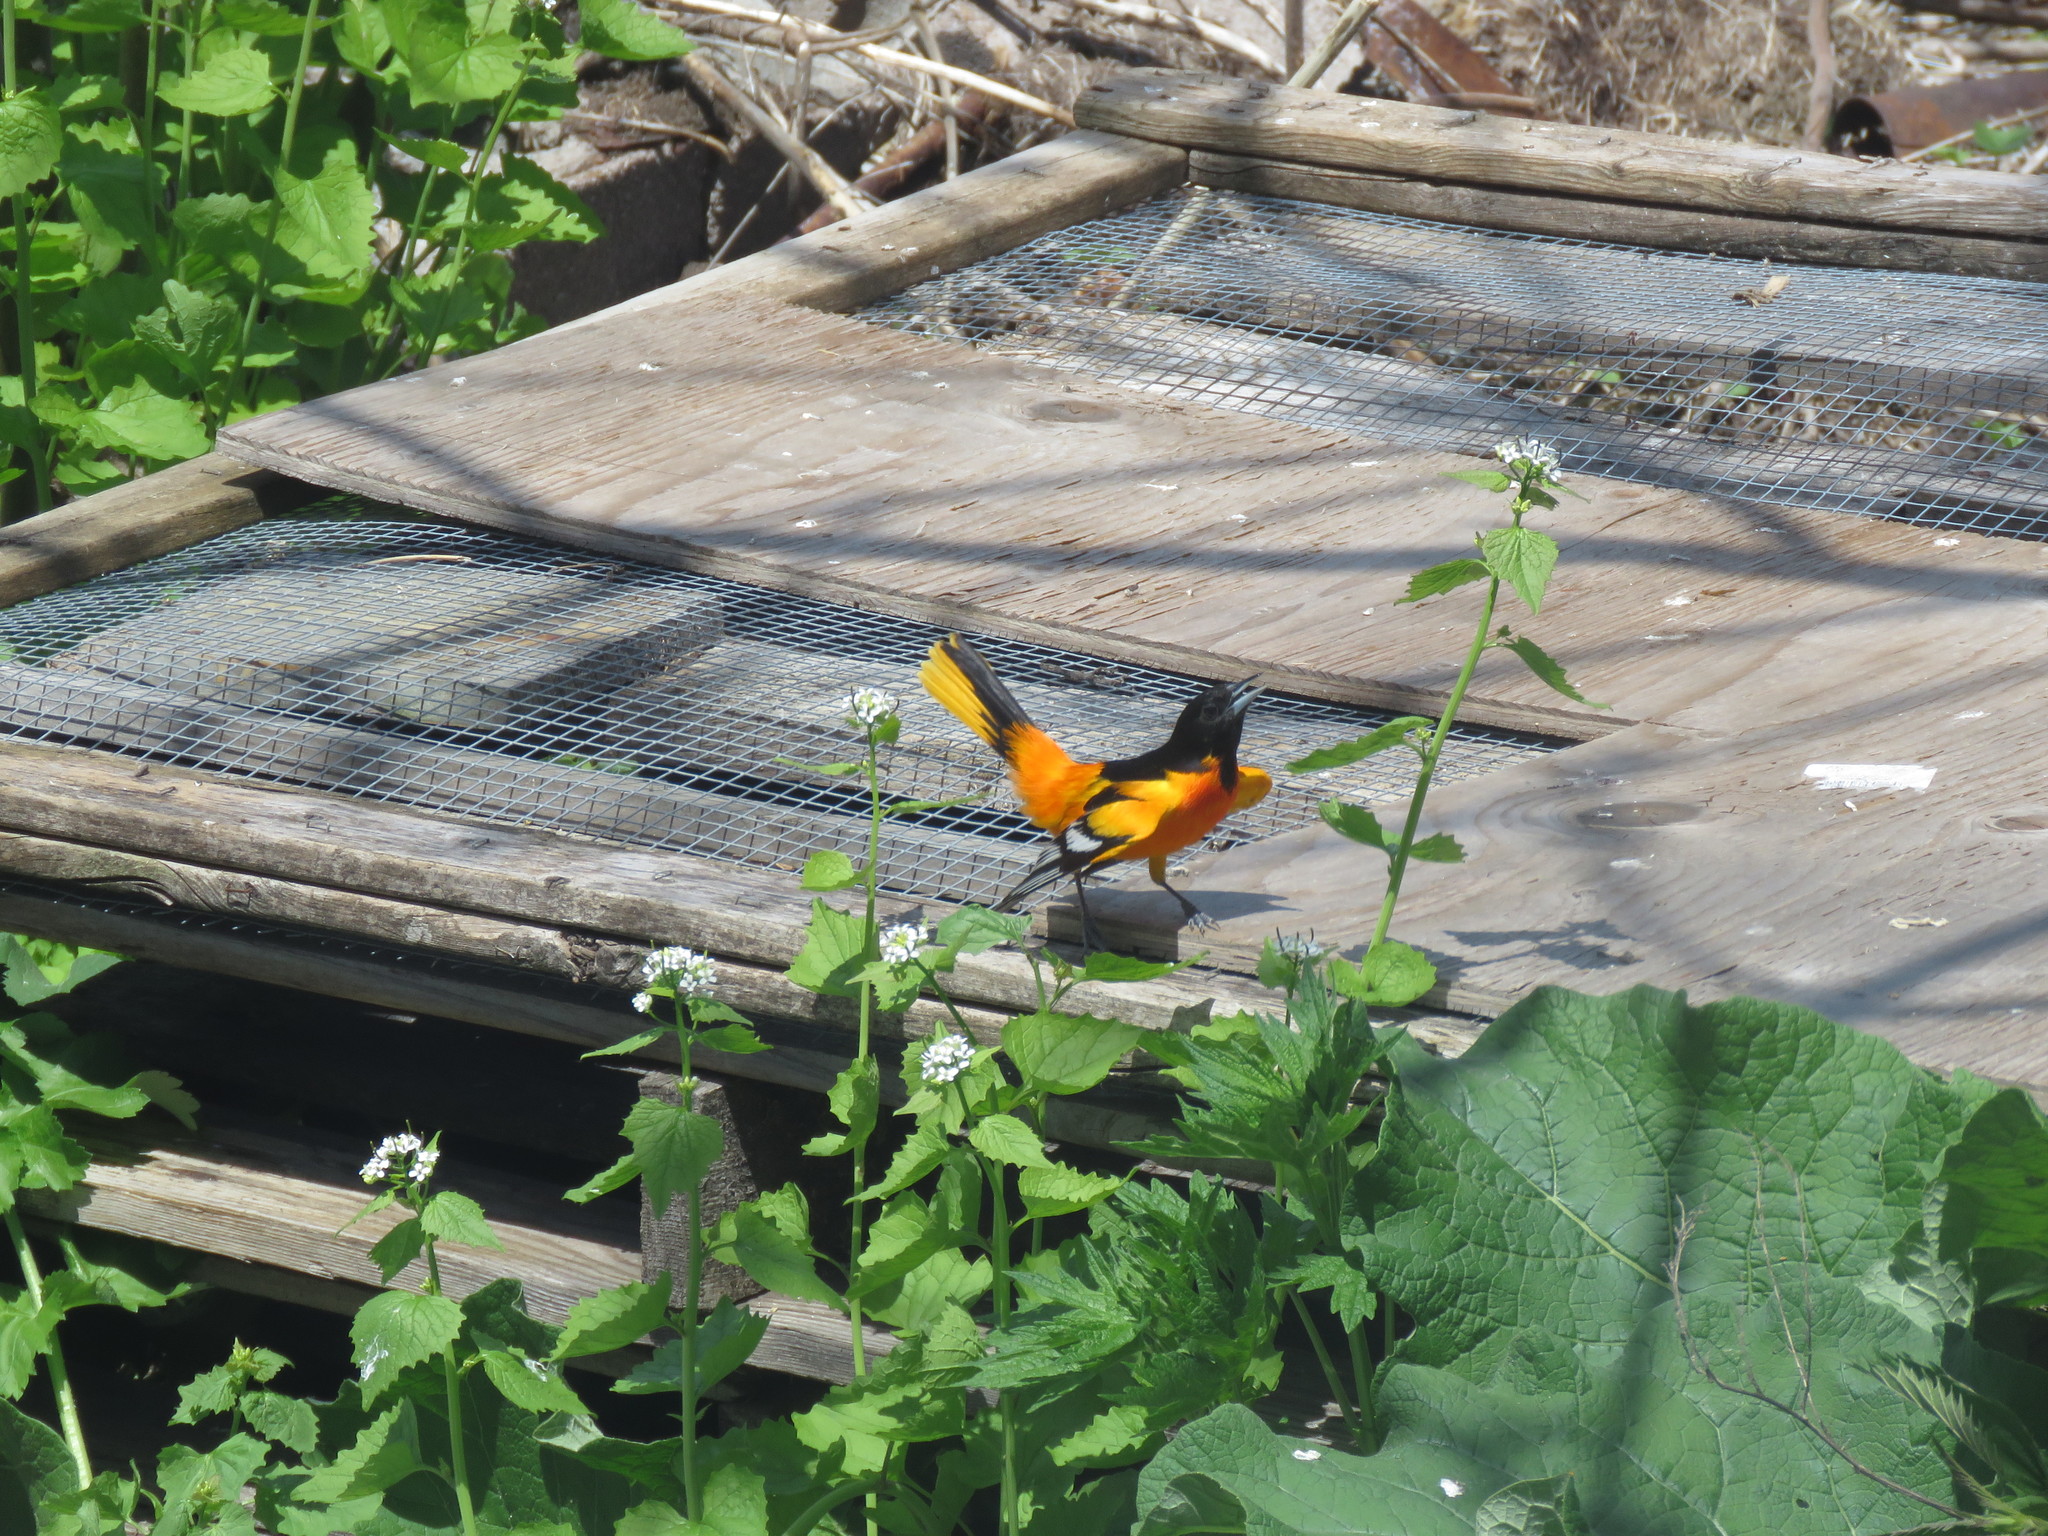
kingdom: Animalia
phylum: Chordata
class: Aves
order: Passeriformes
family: Icteridae
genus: Icterus
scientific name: Icterus galbula
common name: Baltimore oriole
